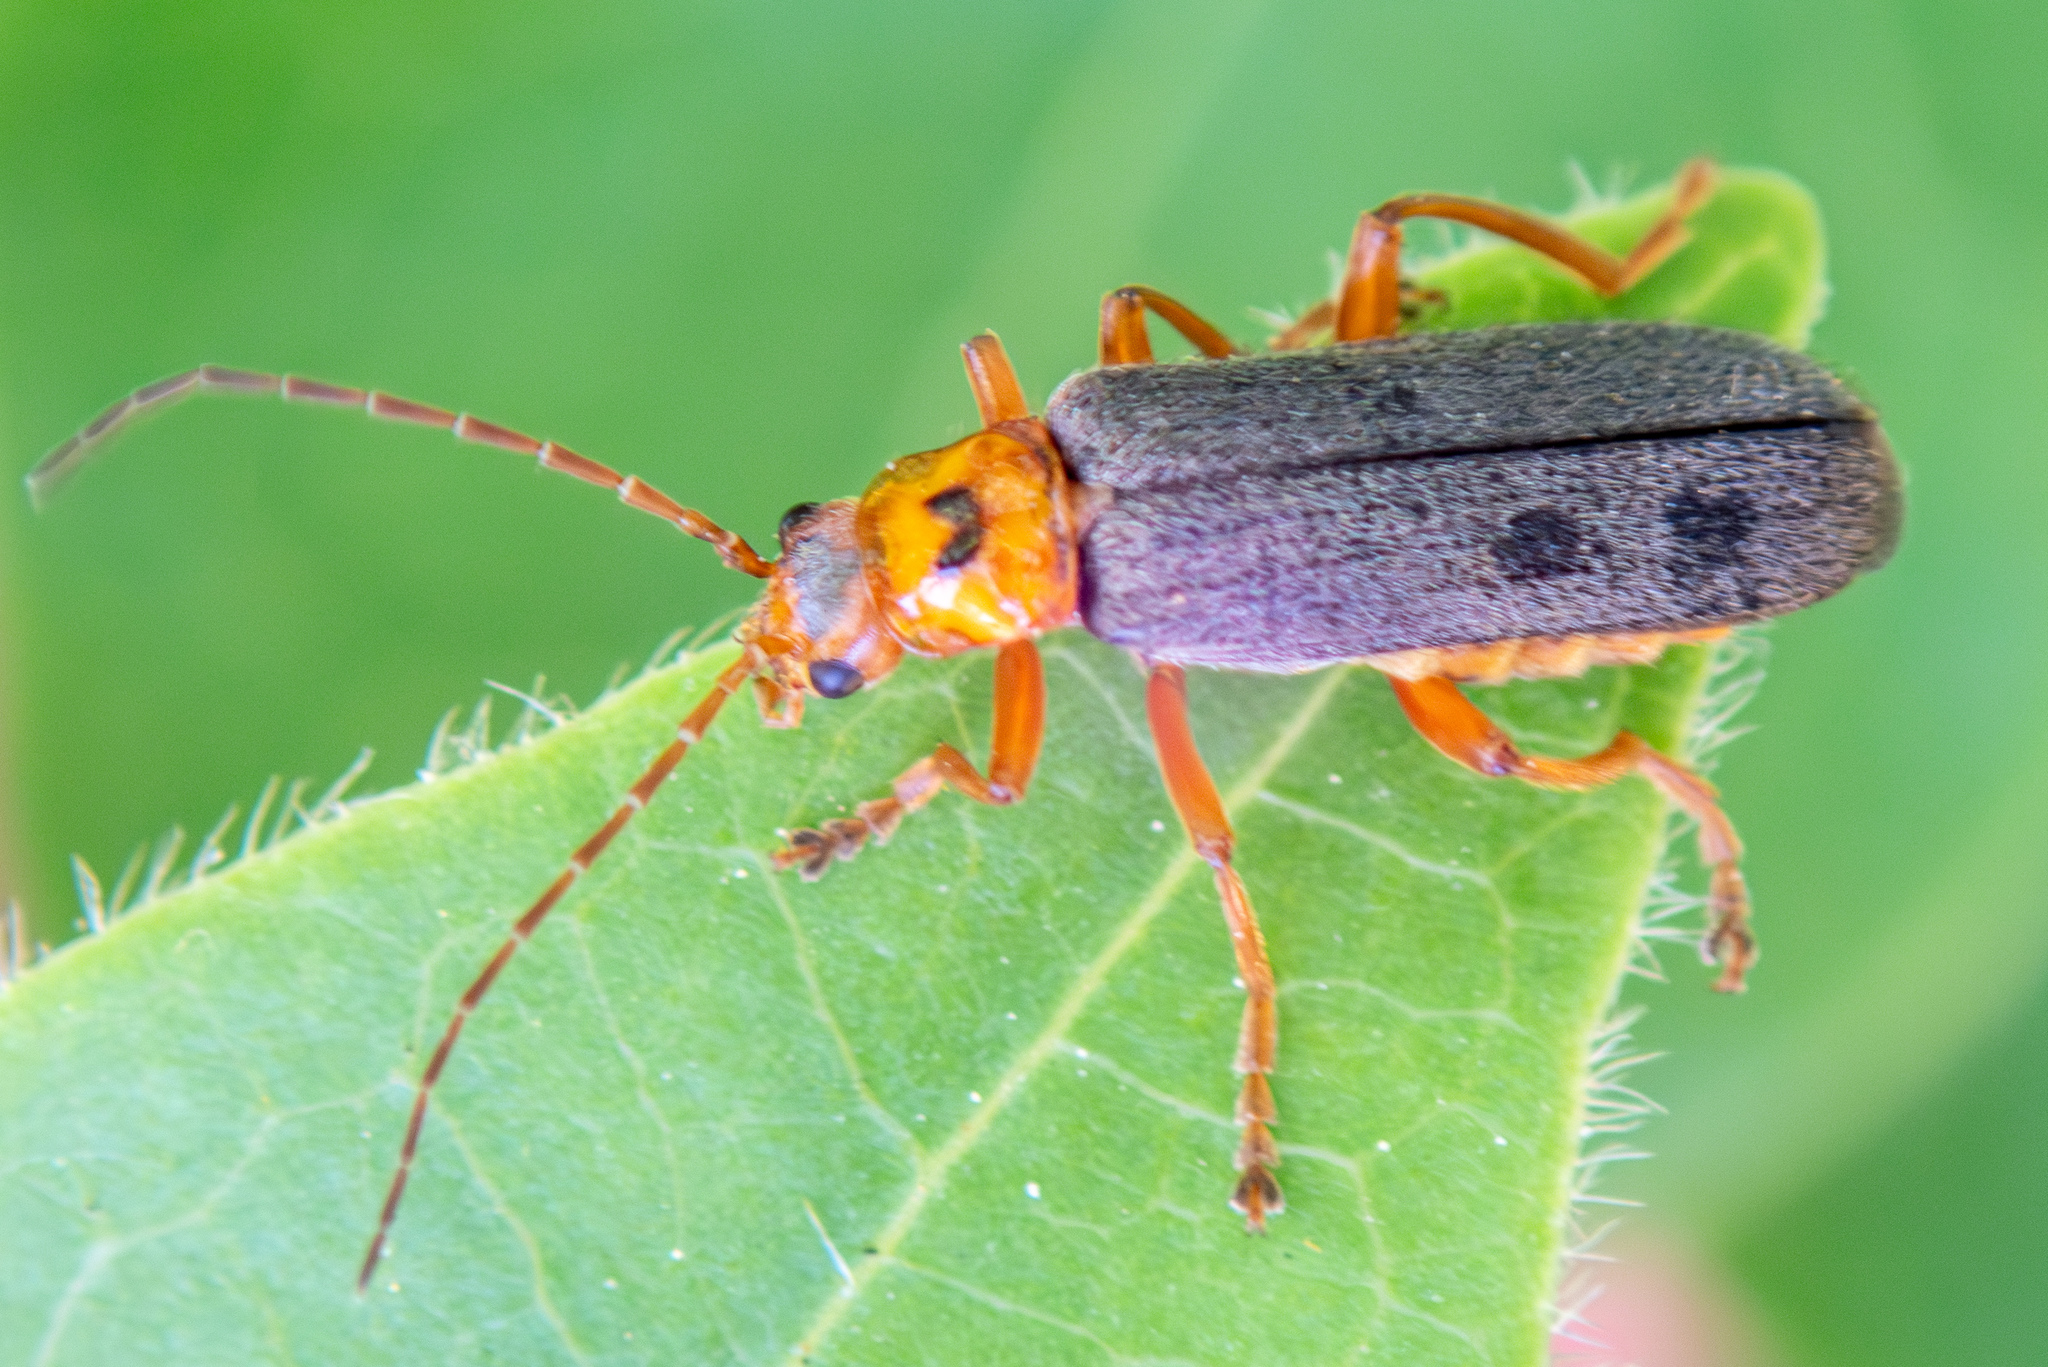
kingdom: Animalia
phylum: Arthropoda
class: Insecta
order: Coleoptera
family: Cantharidae
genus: Cultellunguis
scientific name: Cultellunguis americanus
